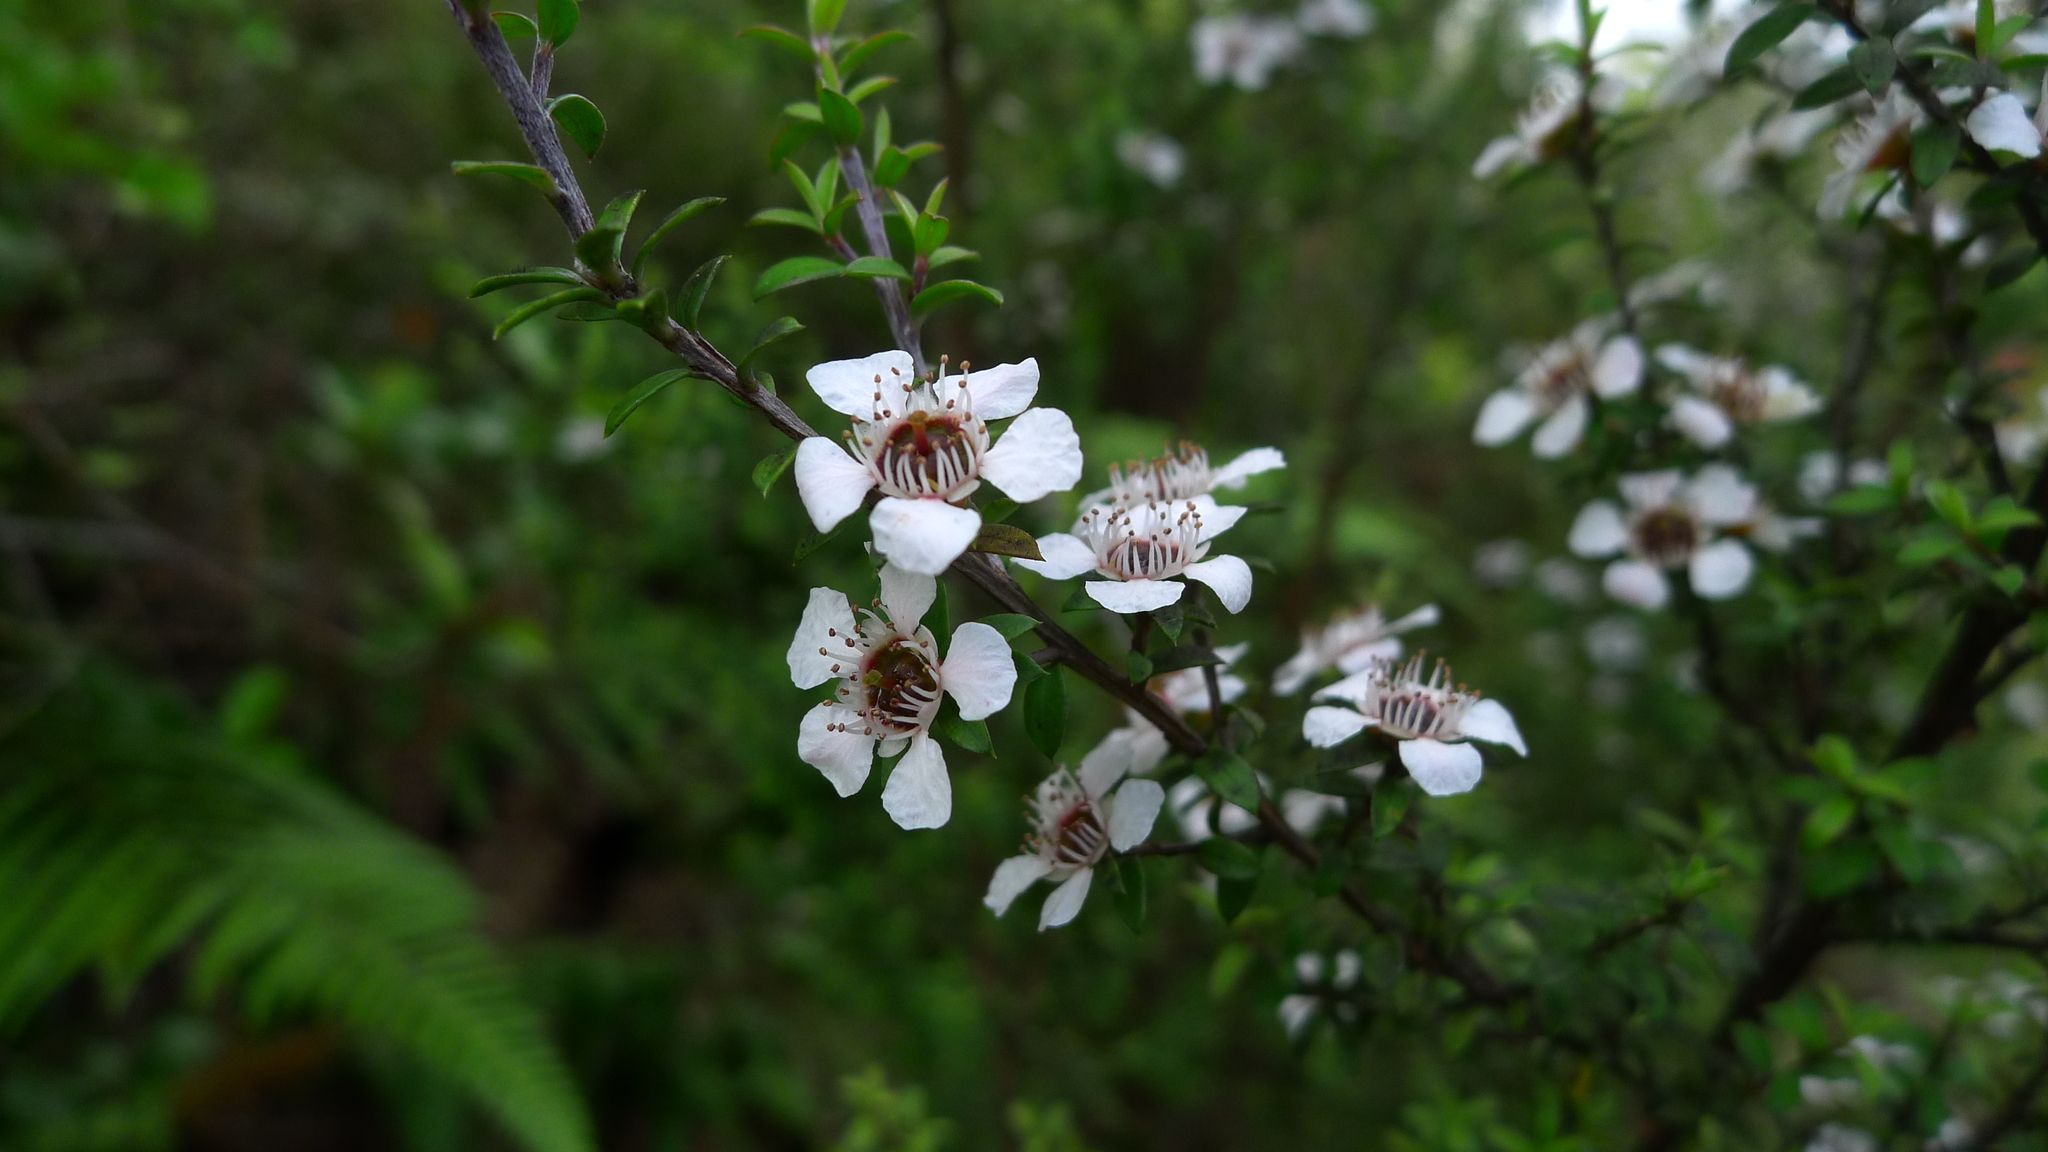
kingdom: Plantae
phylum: Tracheophyta
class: Magnoliopsida
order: Myrtales
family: Myrtaceae
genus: Leptospermum
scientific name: Leptospermum scoparium
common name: Broom tea-tree
